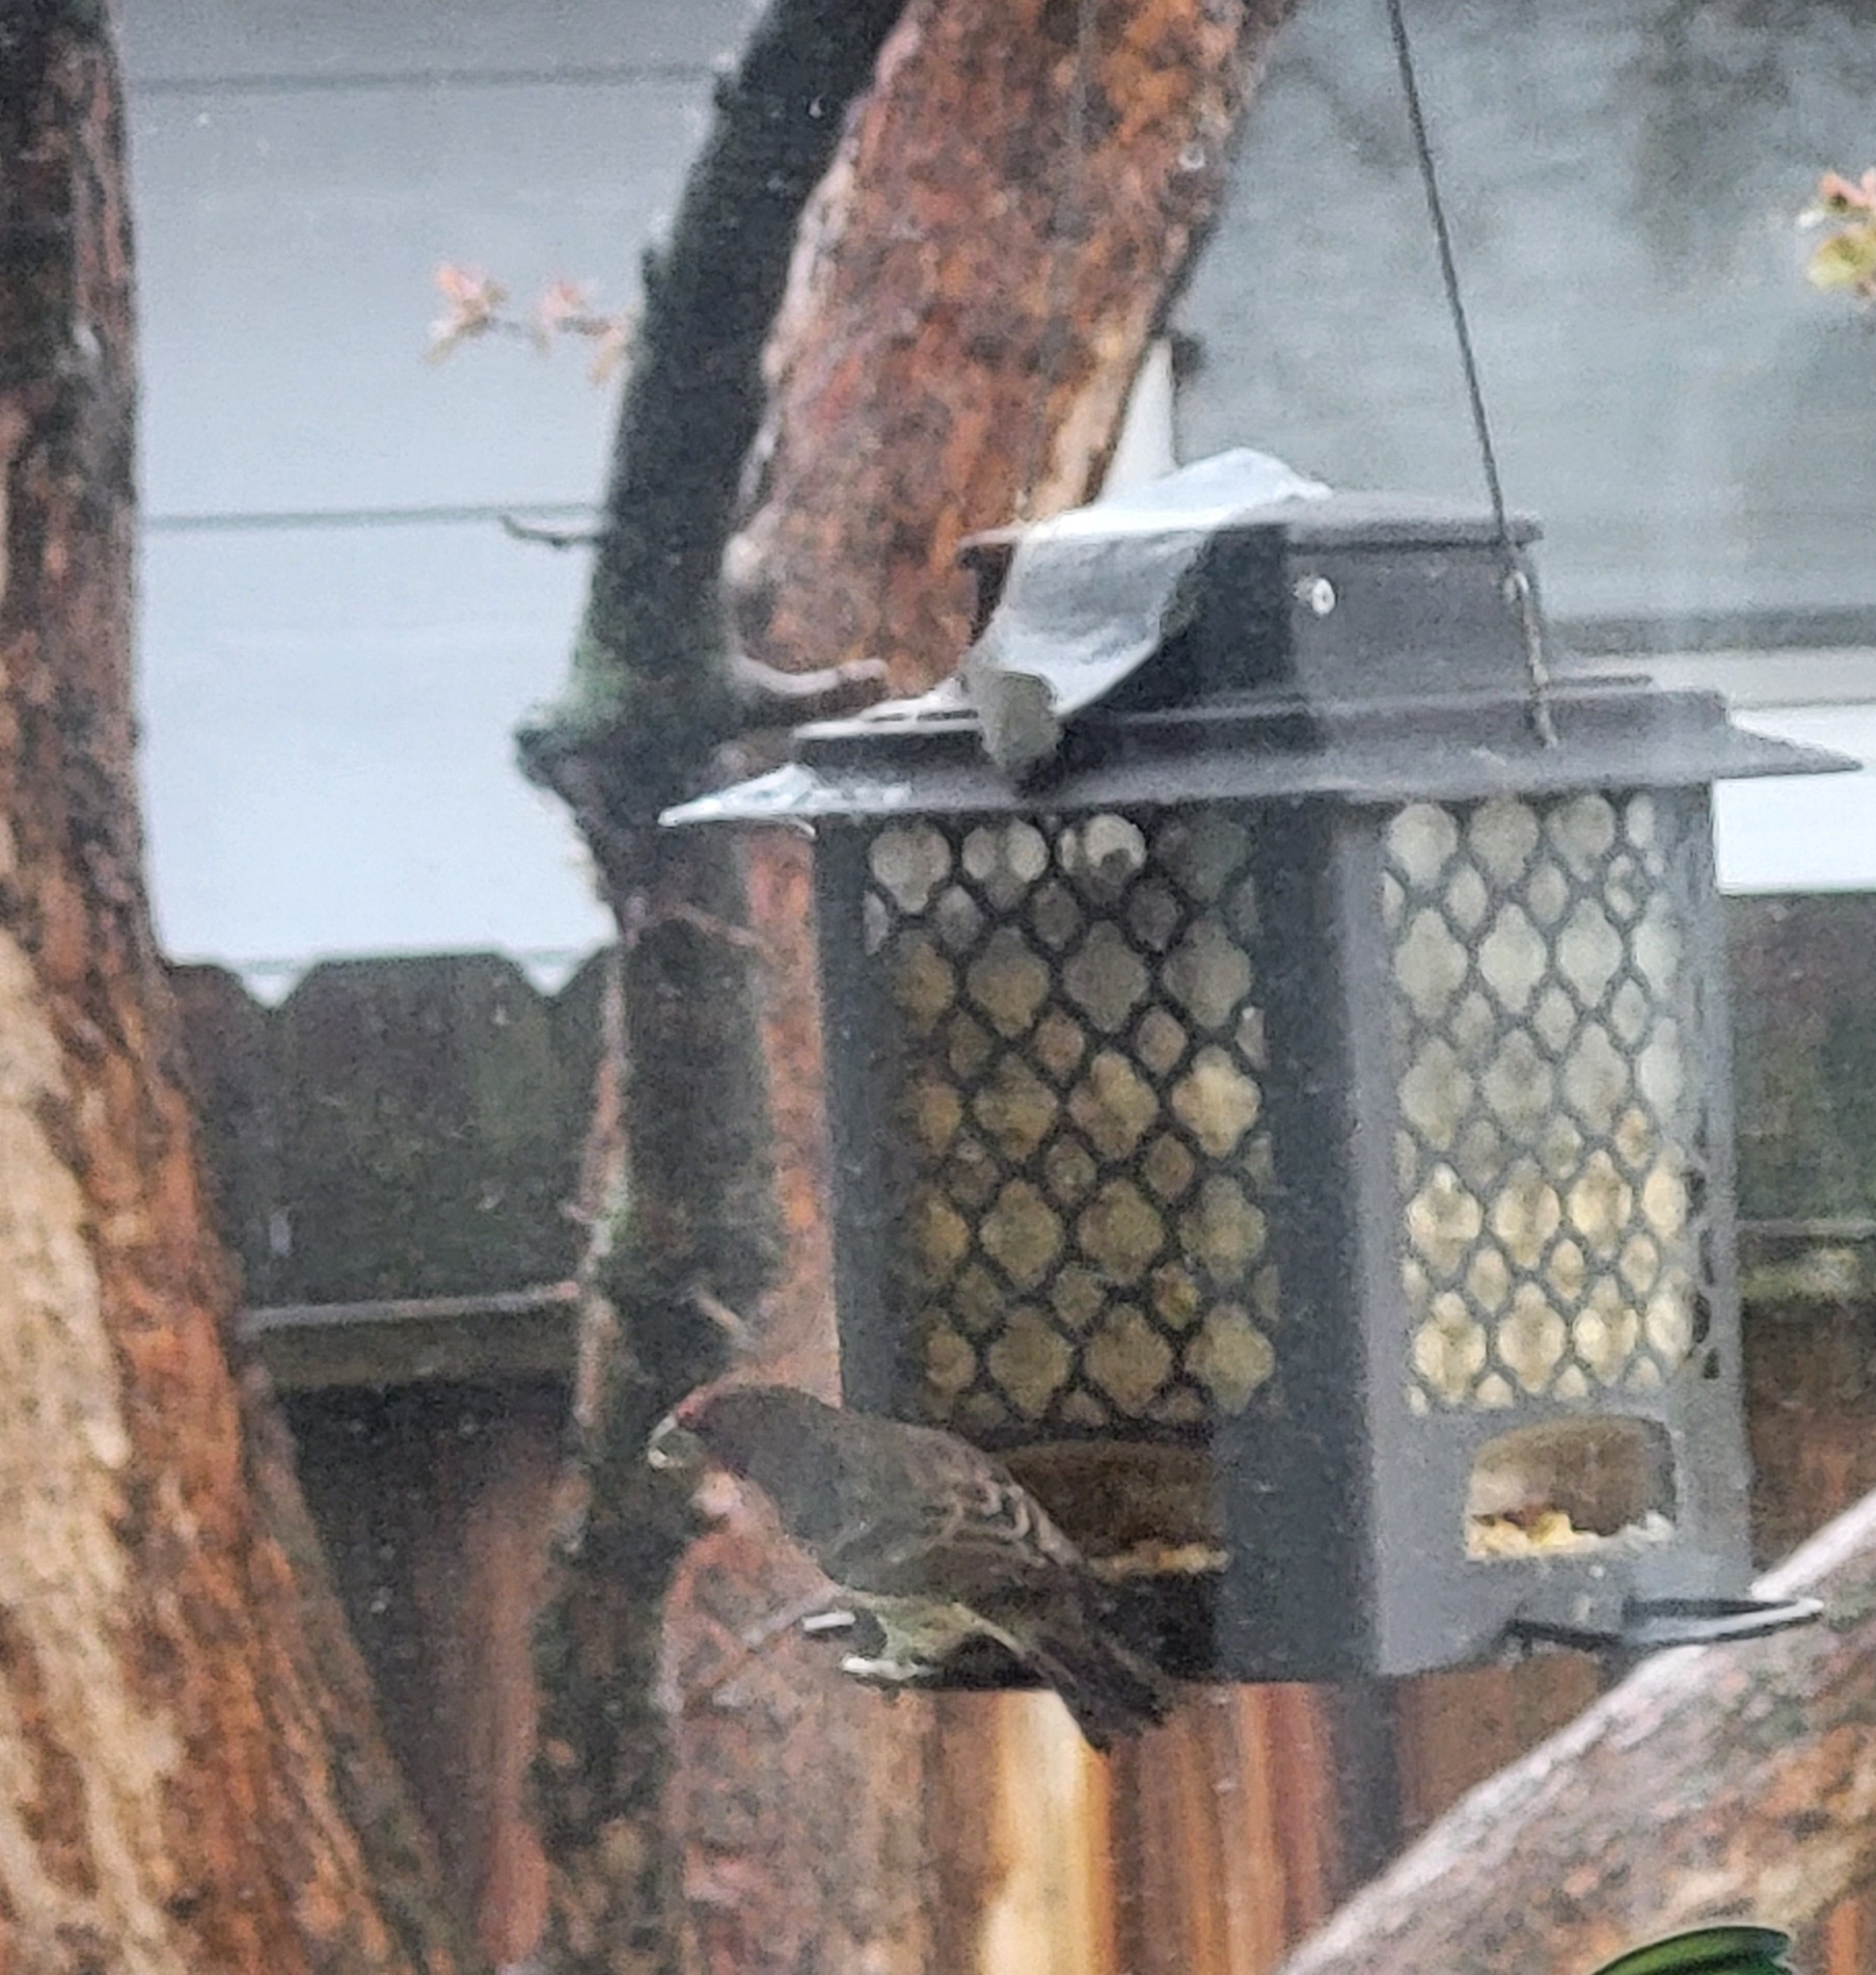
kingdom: Animalia
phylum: Chordata
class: Aves
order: Passeriformes
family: Fringillidae
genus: Haemorhous
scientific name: Haemorhous mexicanus
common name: House finch
